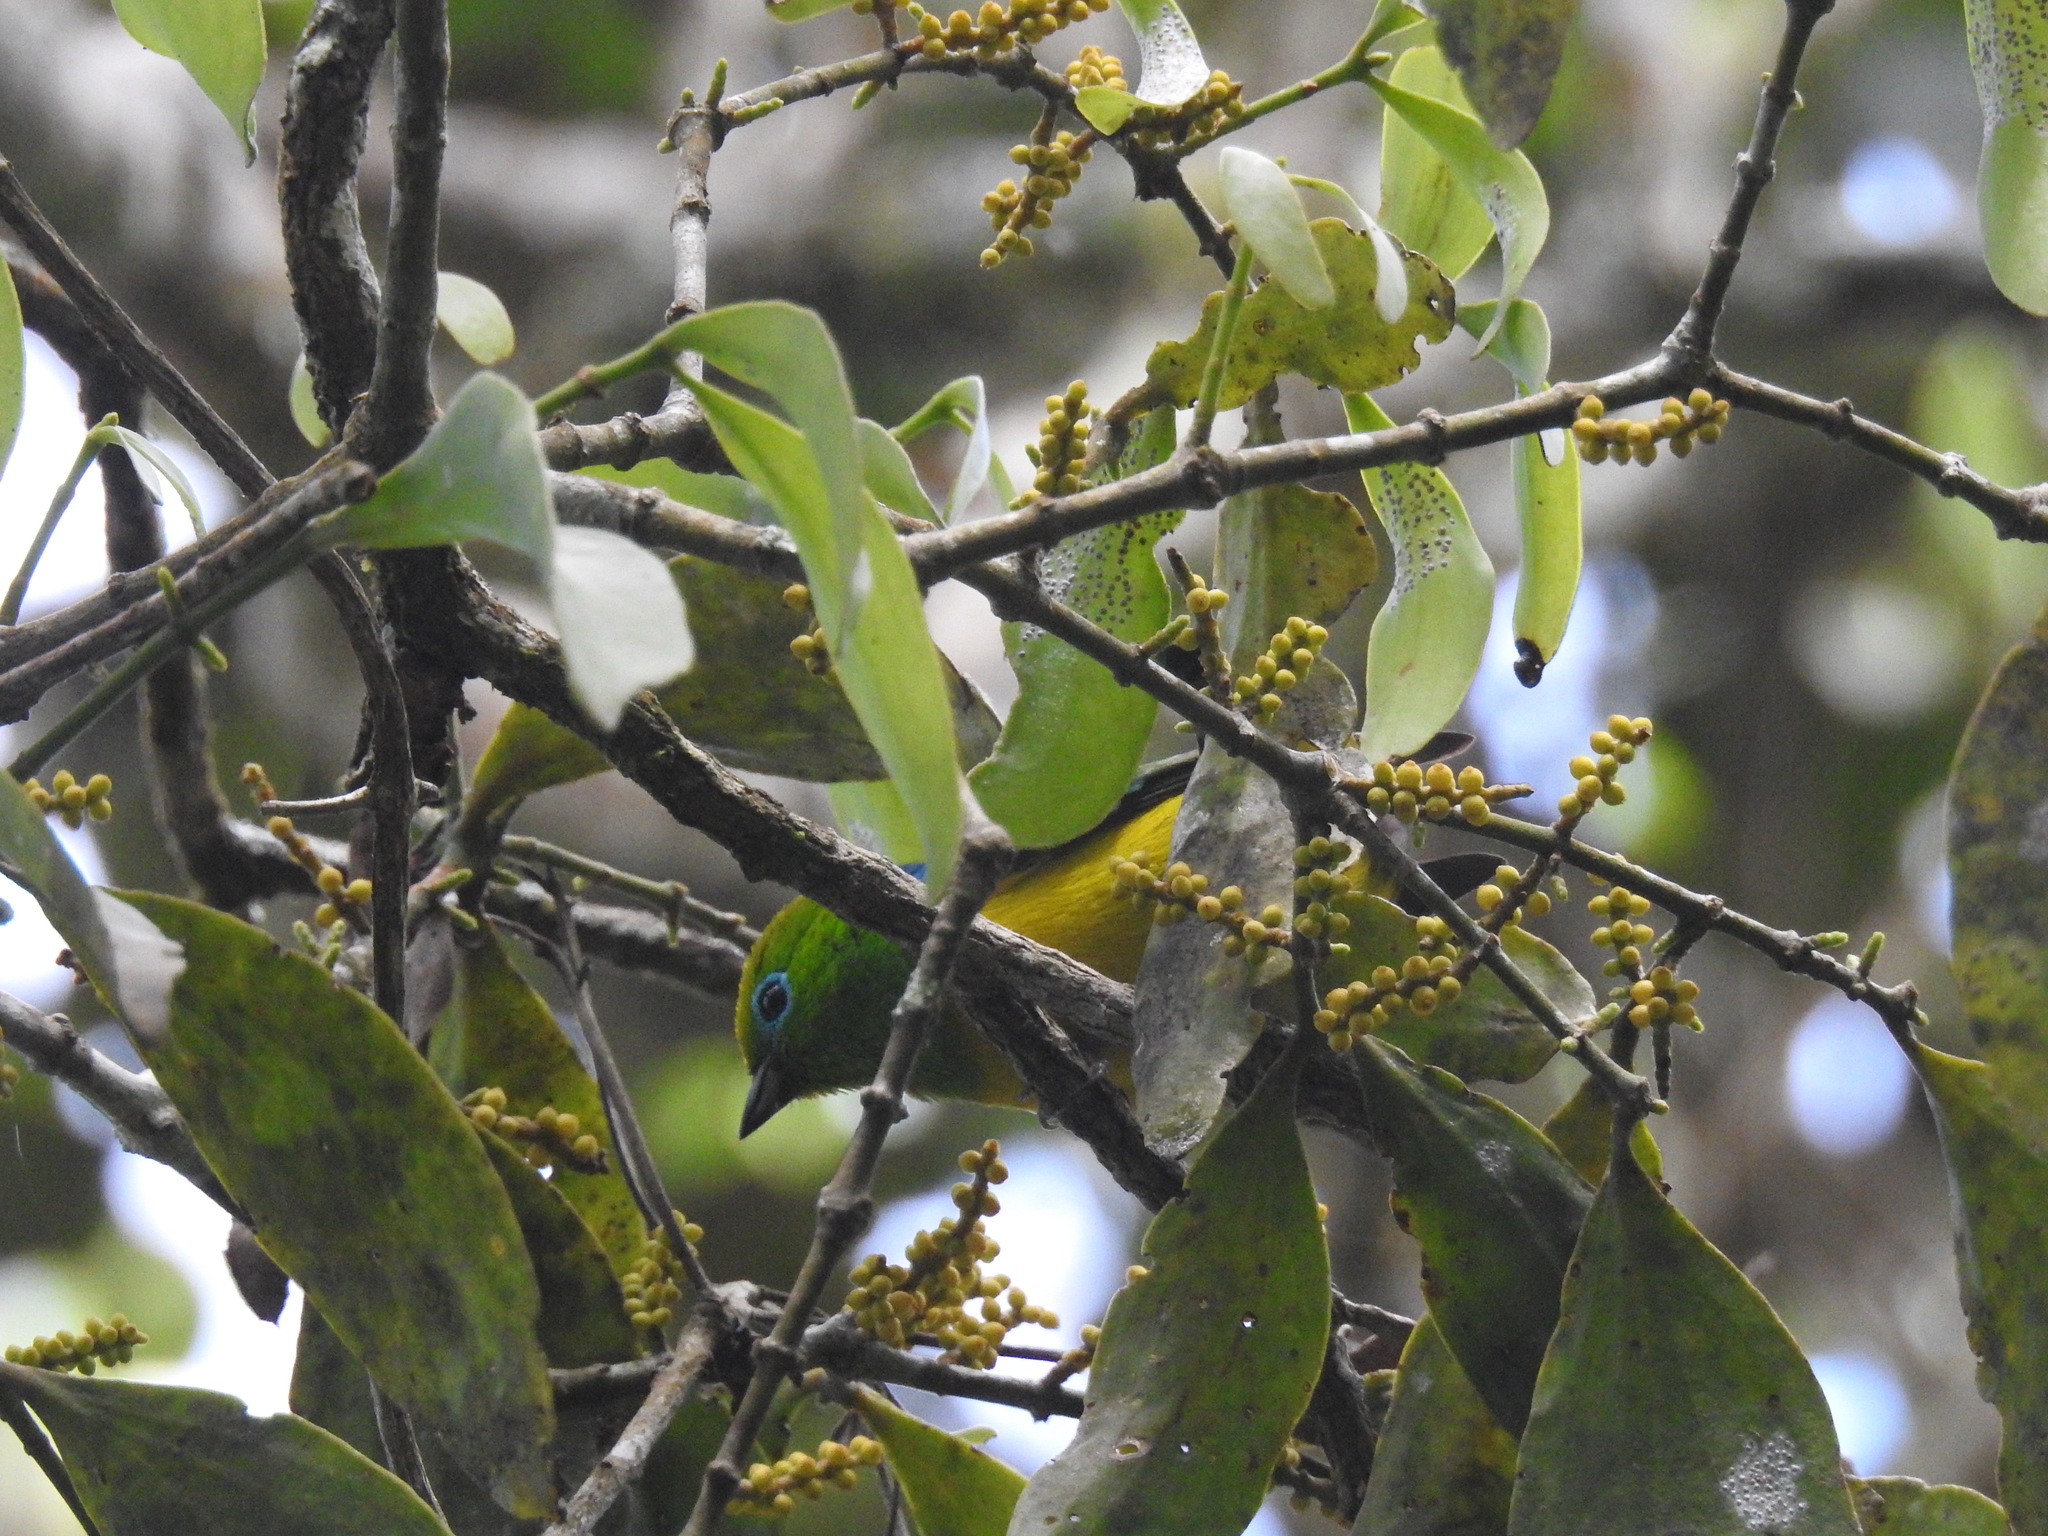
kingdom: Animalia
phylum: Chordata
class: Aves
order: Passeriformes
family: Fringillidae
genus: Chlorophonia
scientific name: Chlorophonia cyanea
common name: Blue-naped chlorophonia
